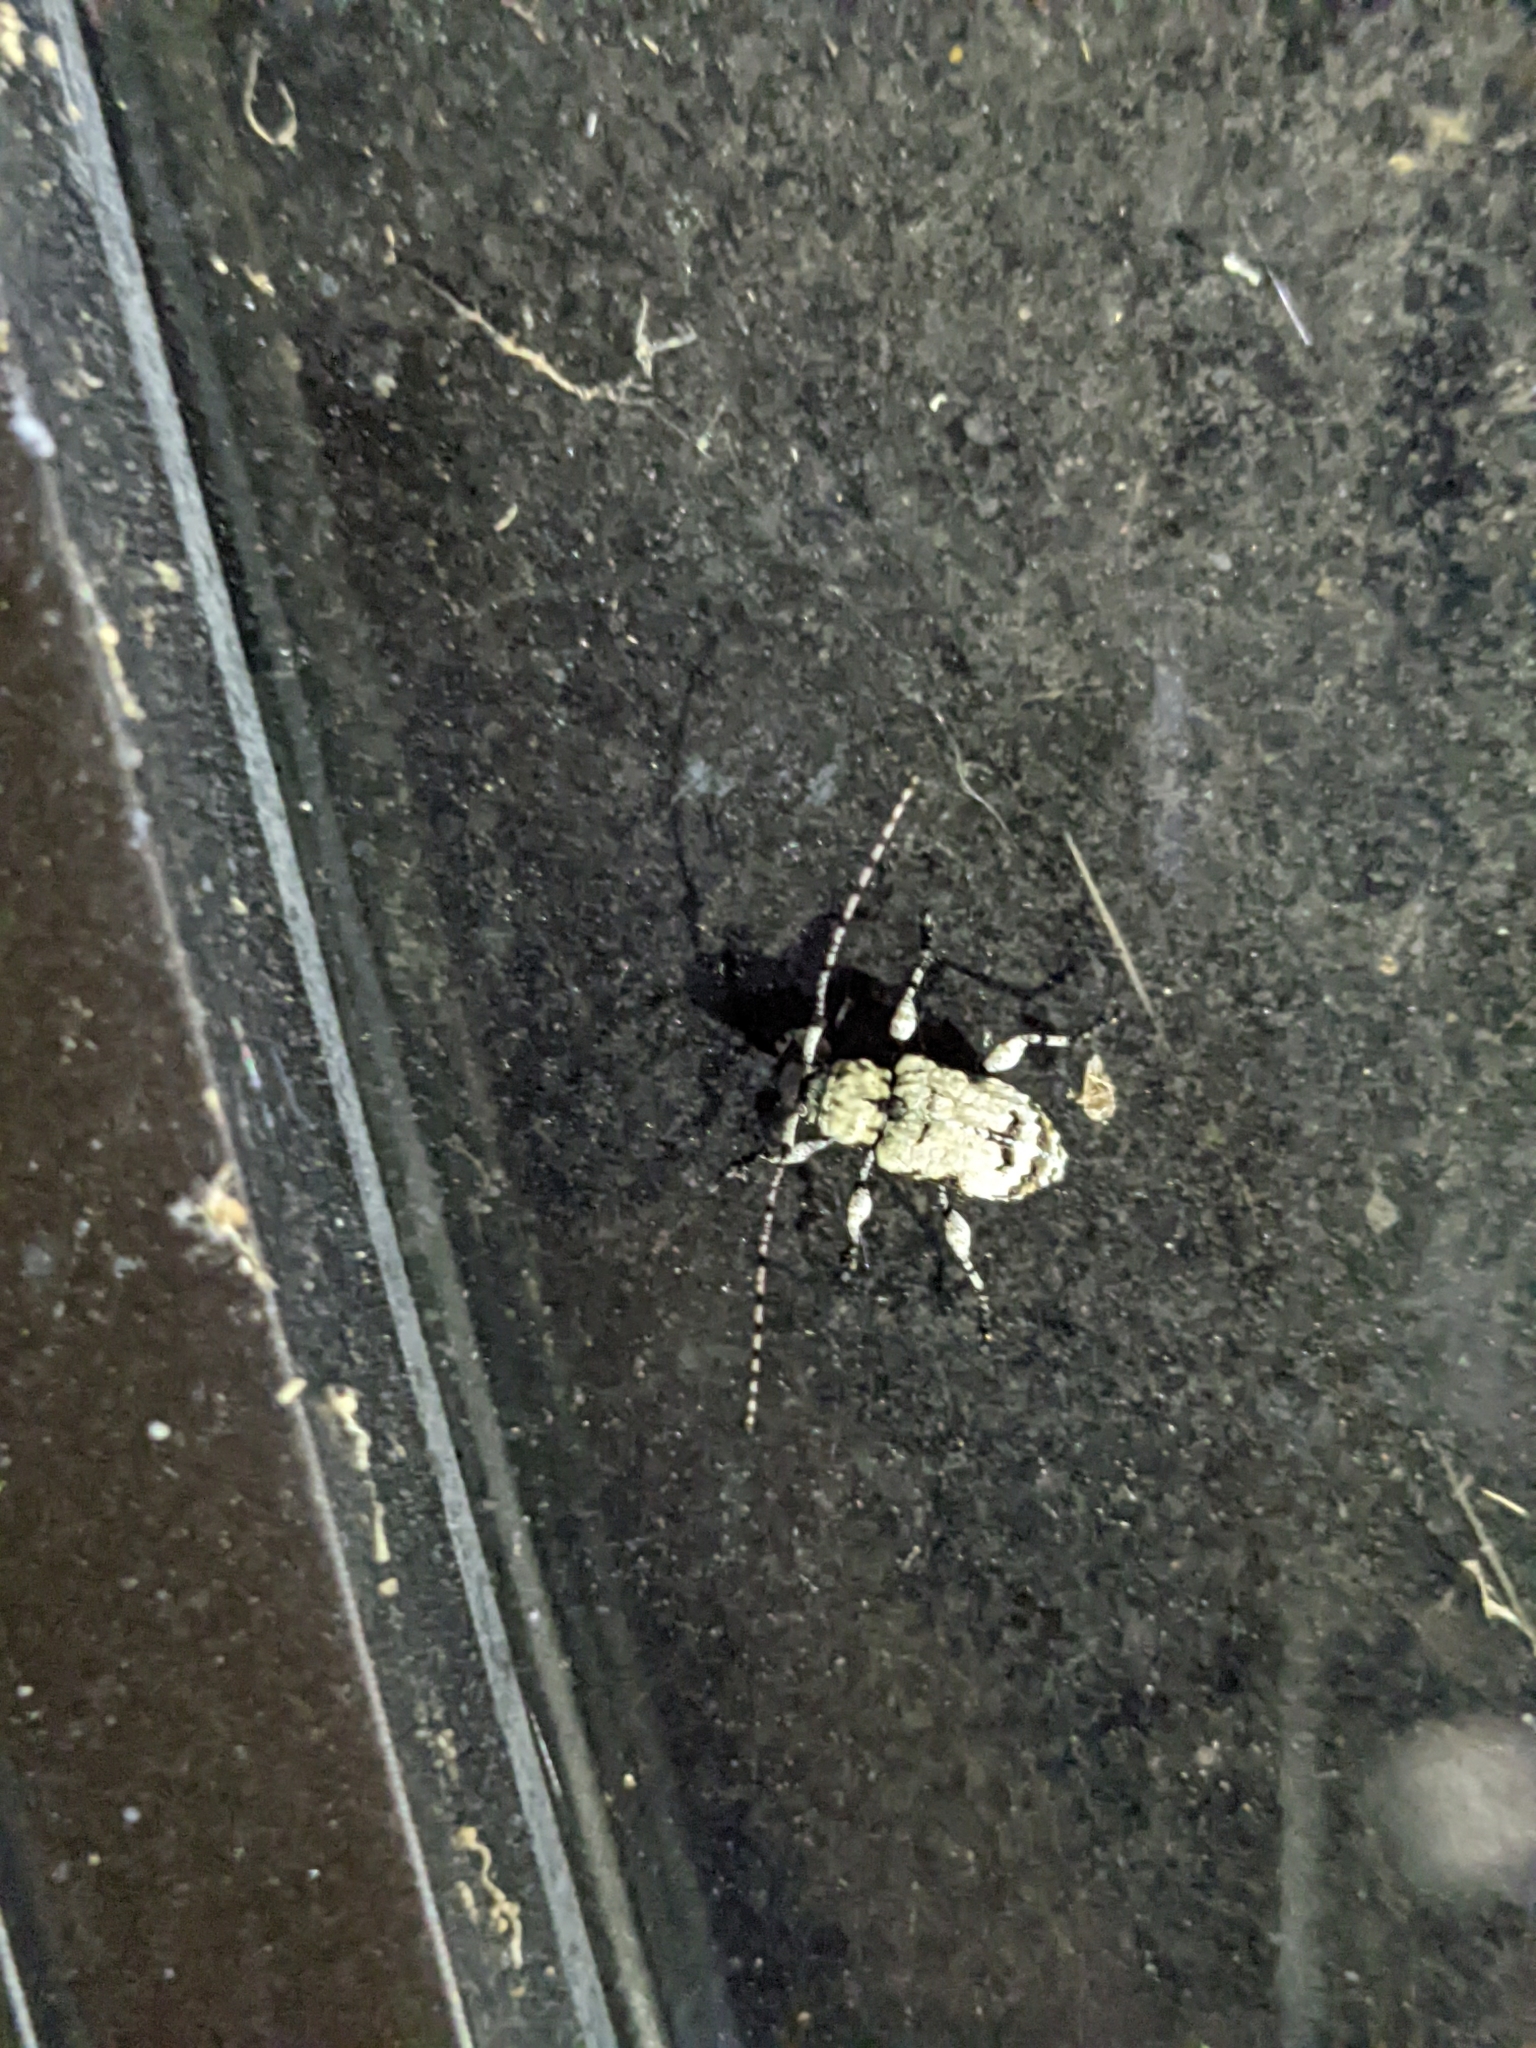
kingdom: Animalia
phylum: Arthropoda
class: Insecta
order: Coleoptera
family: Cerambycidae
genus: Leptostylus
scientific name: Leptostylus asperatus
